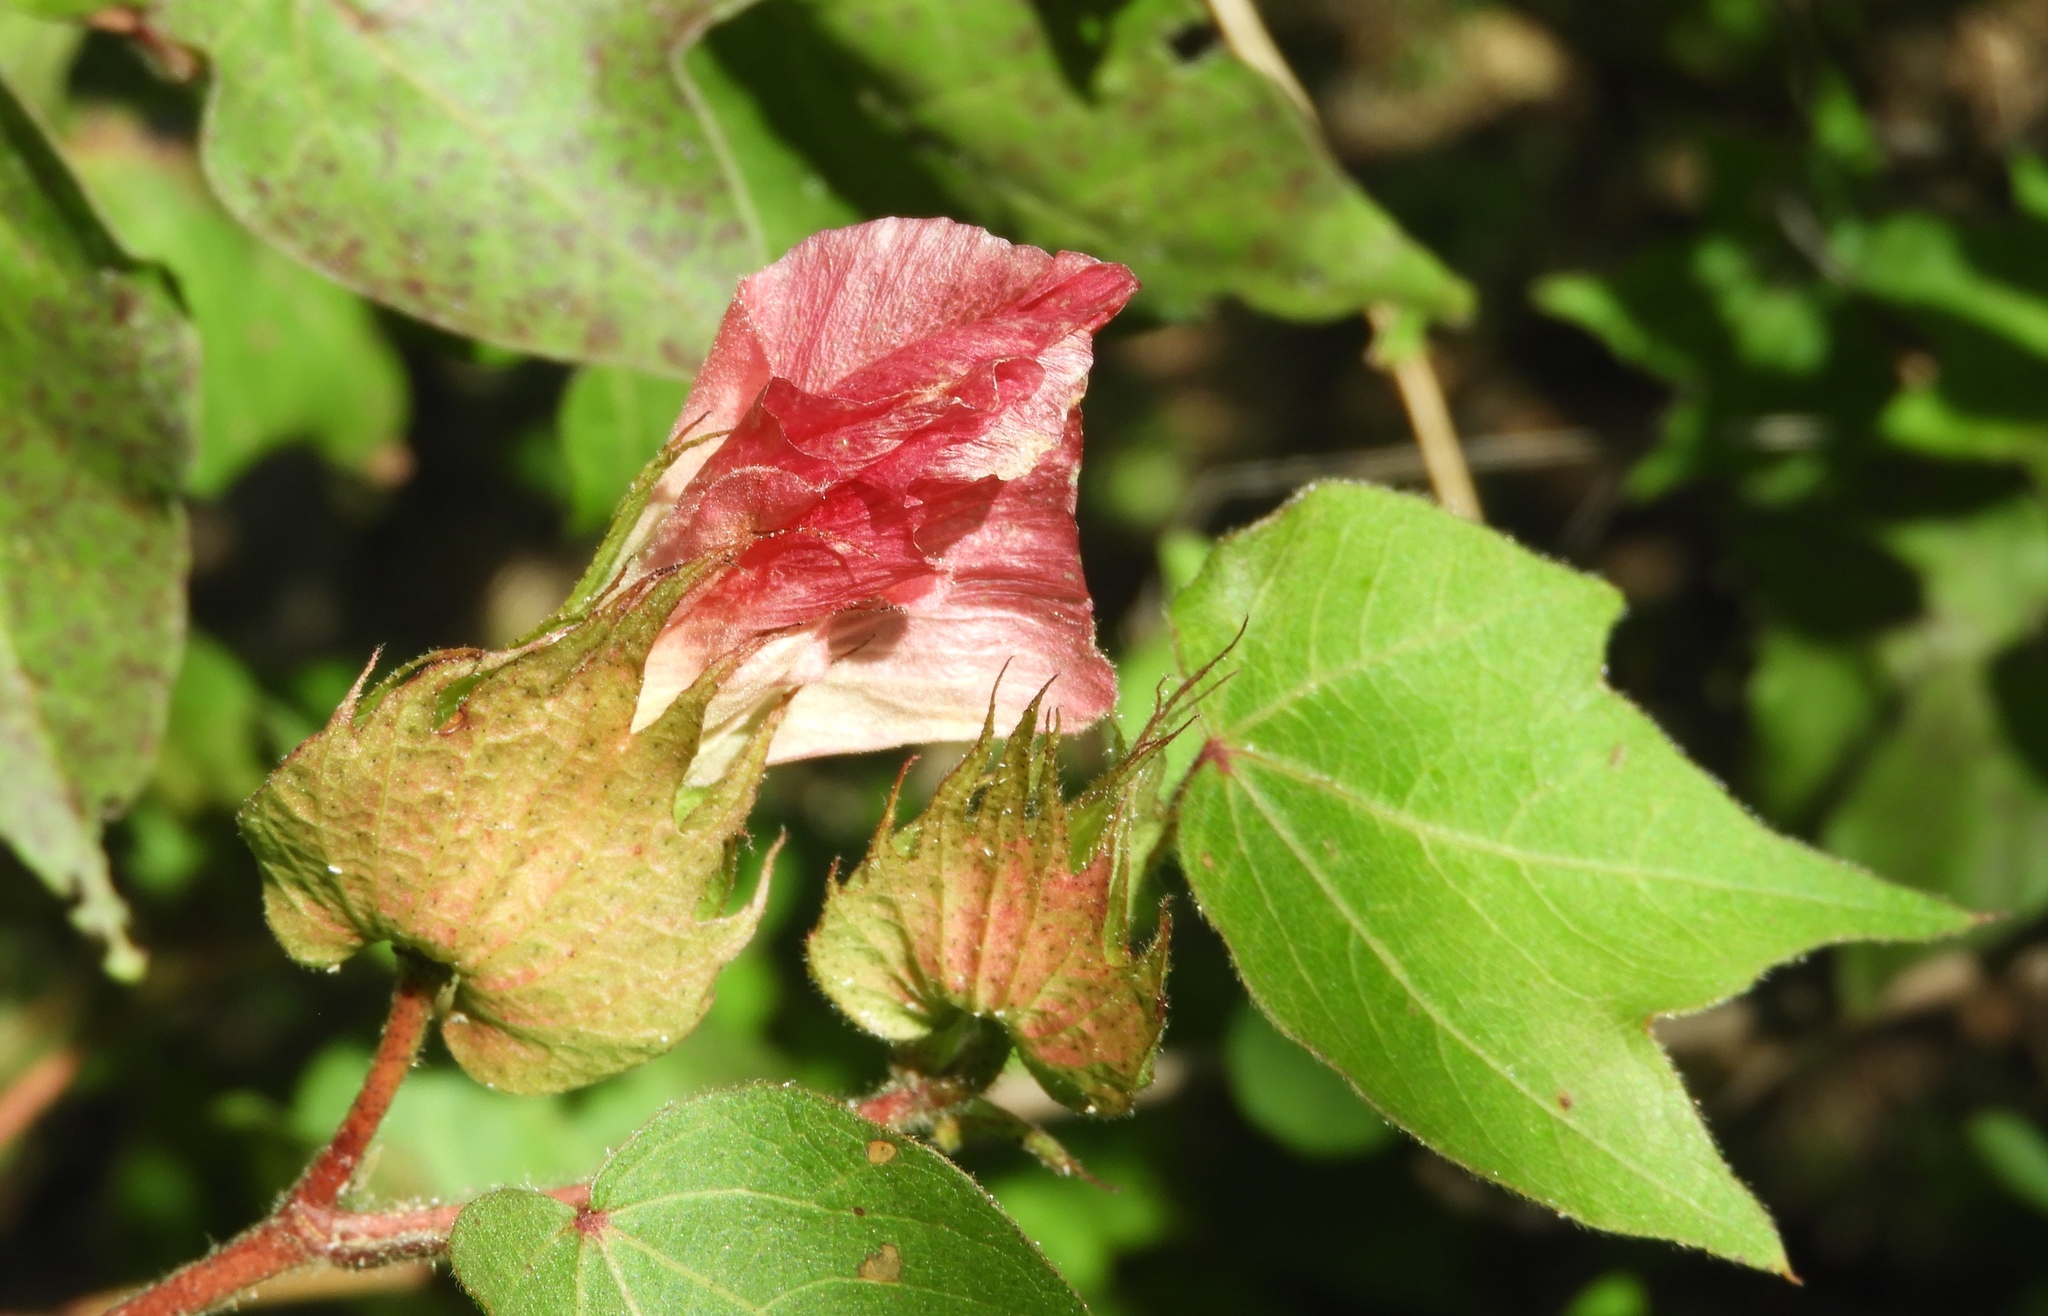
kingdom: Plantae
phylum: Tracheophyta
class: Magnoliopsida
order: Malvales
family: Malvaceae
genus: Gossypium
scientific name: Gossypium hirsutum
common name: Cotton
